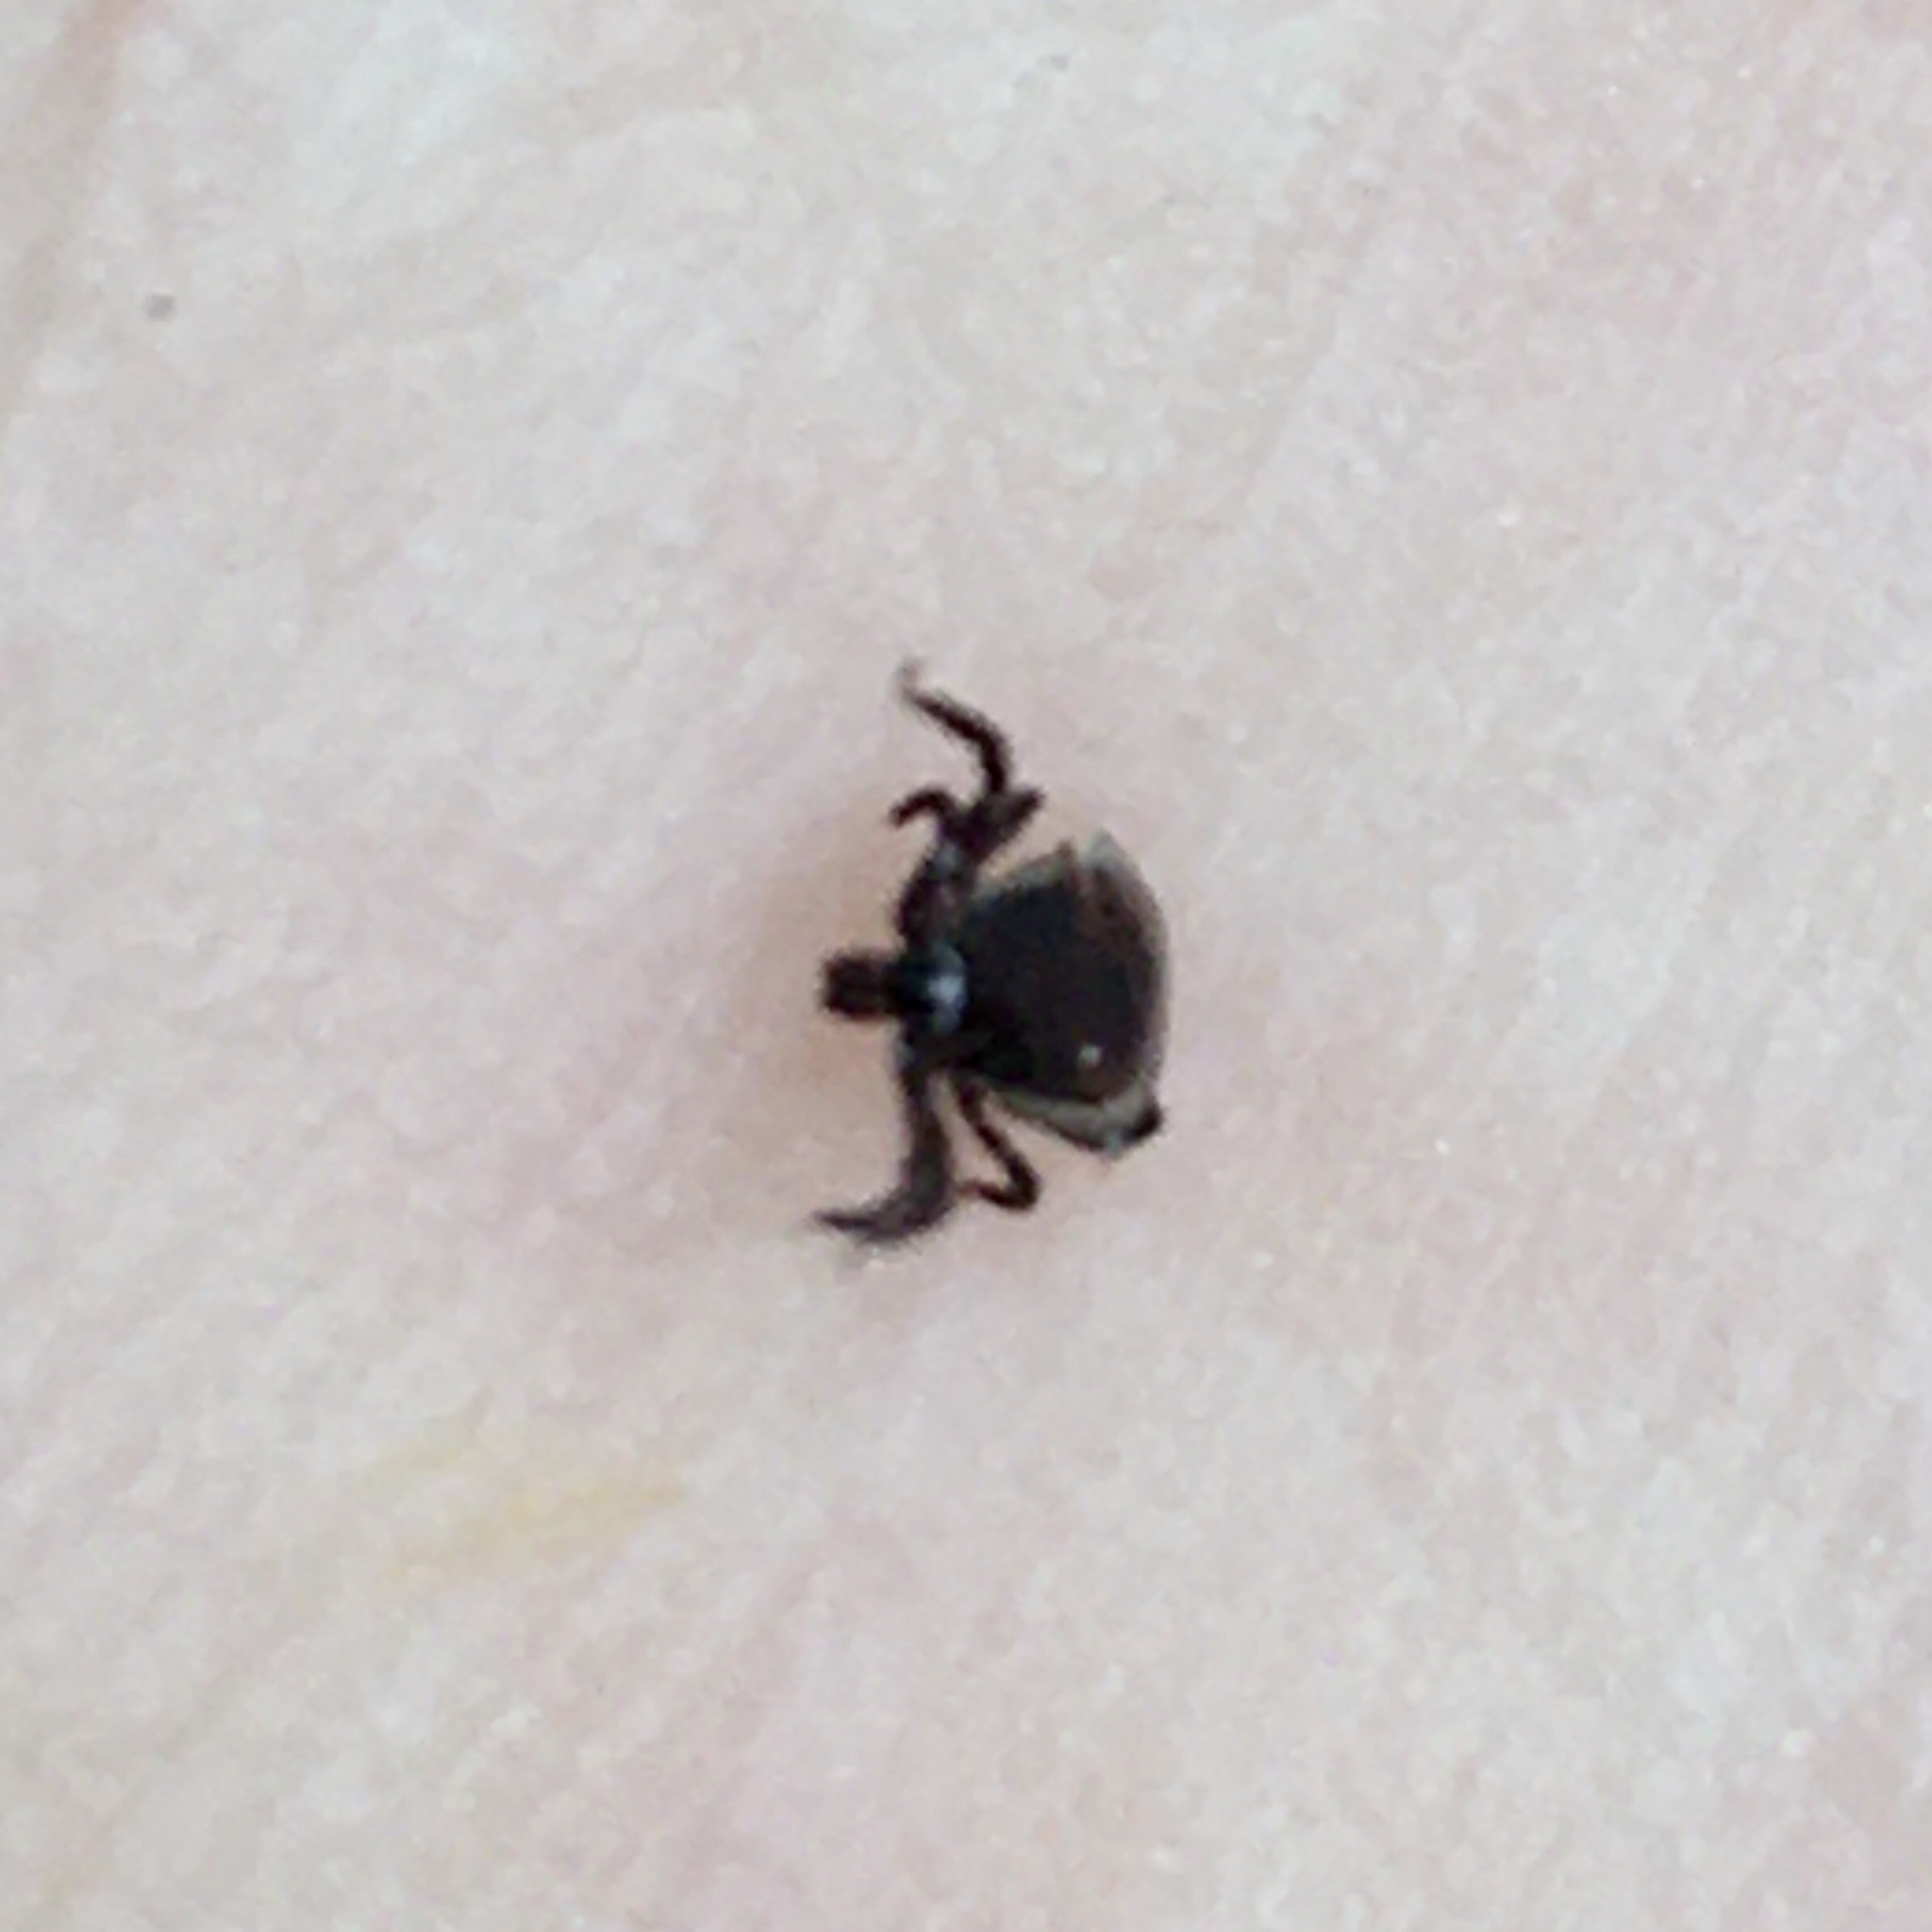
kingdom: Animalia
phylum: Arthropoda
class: Arachnida
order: Ixodida
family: Ixodidae
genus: Ixodes
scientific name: Ixodes
